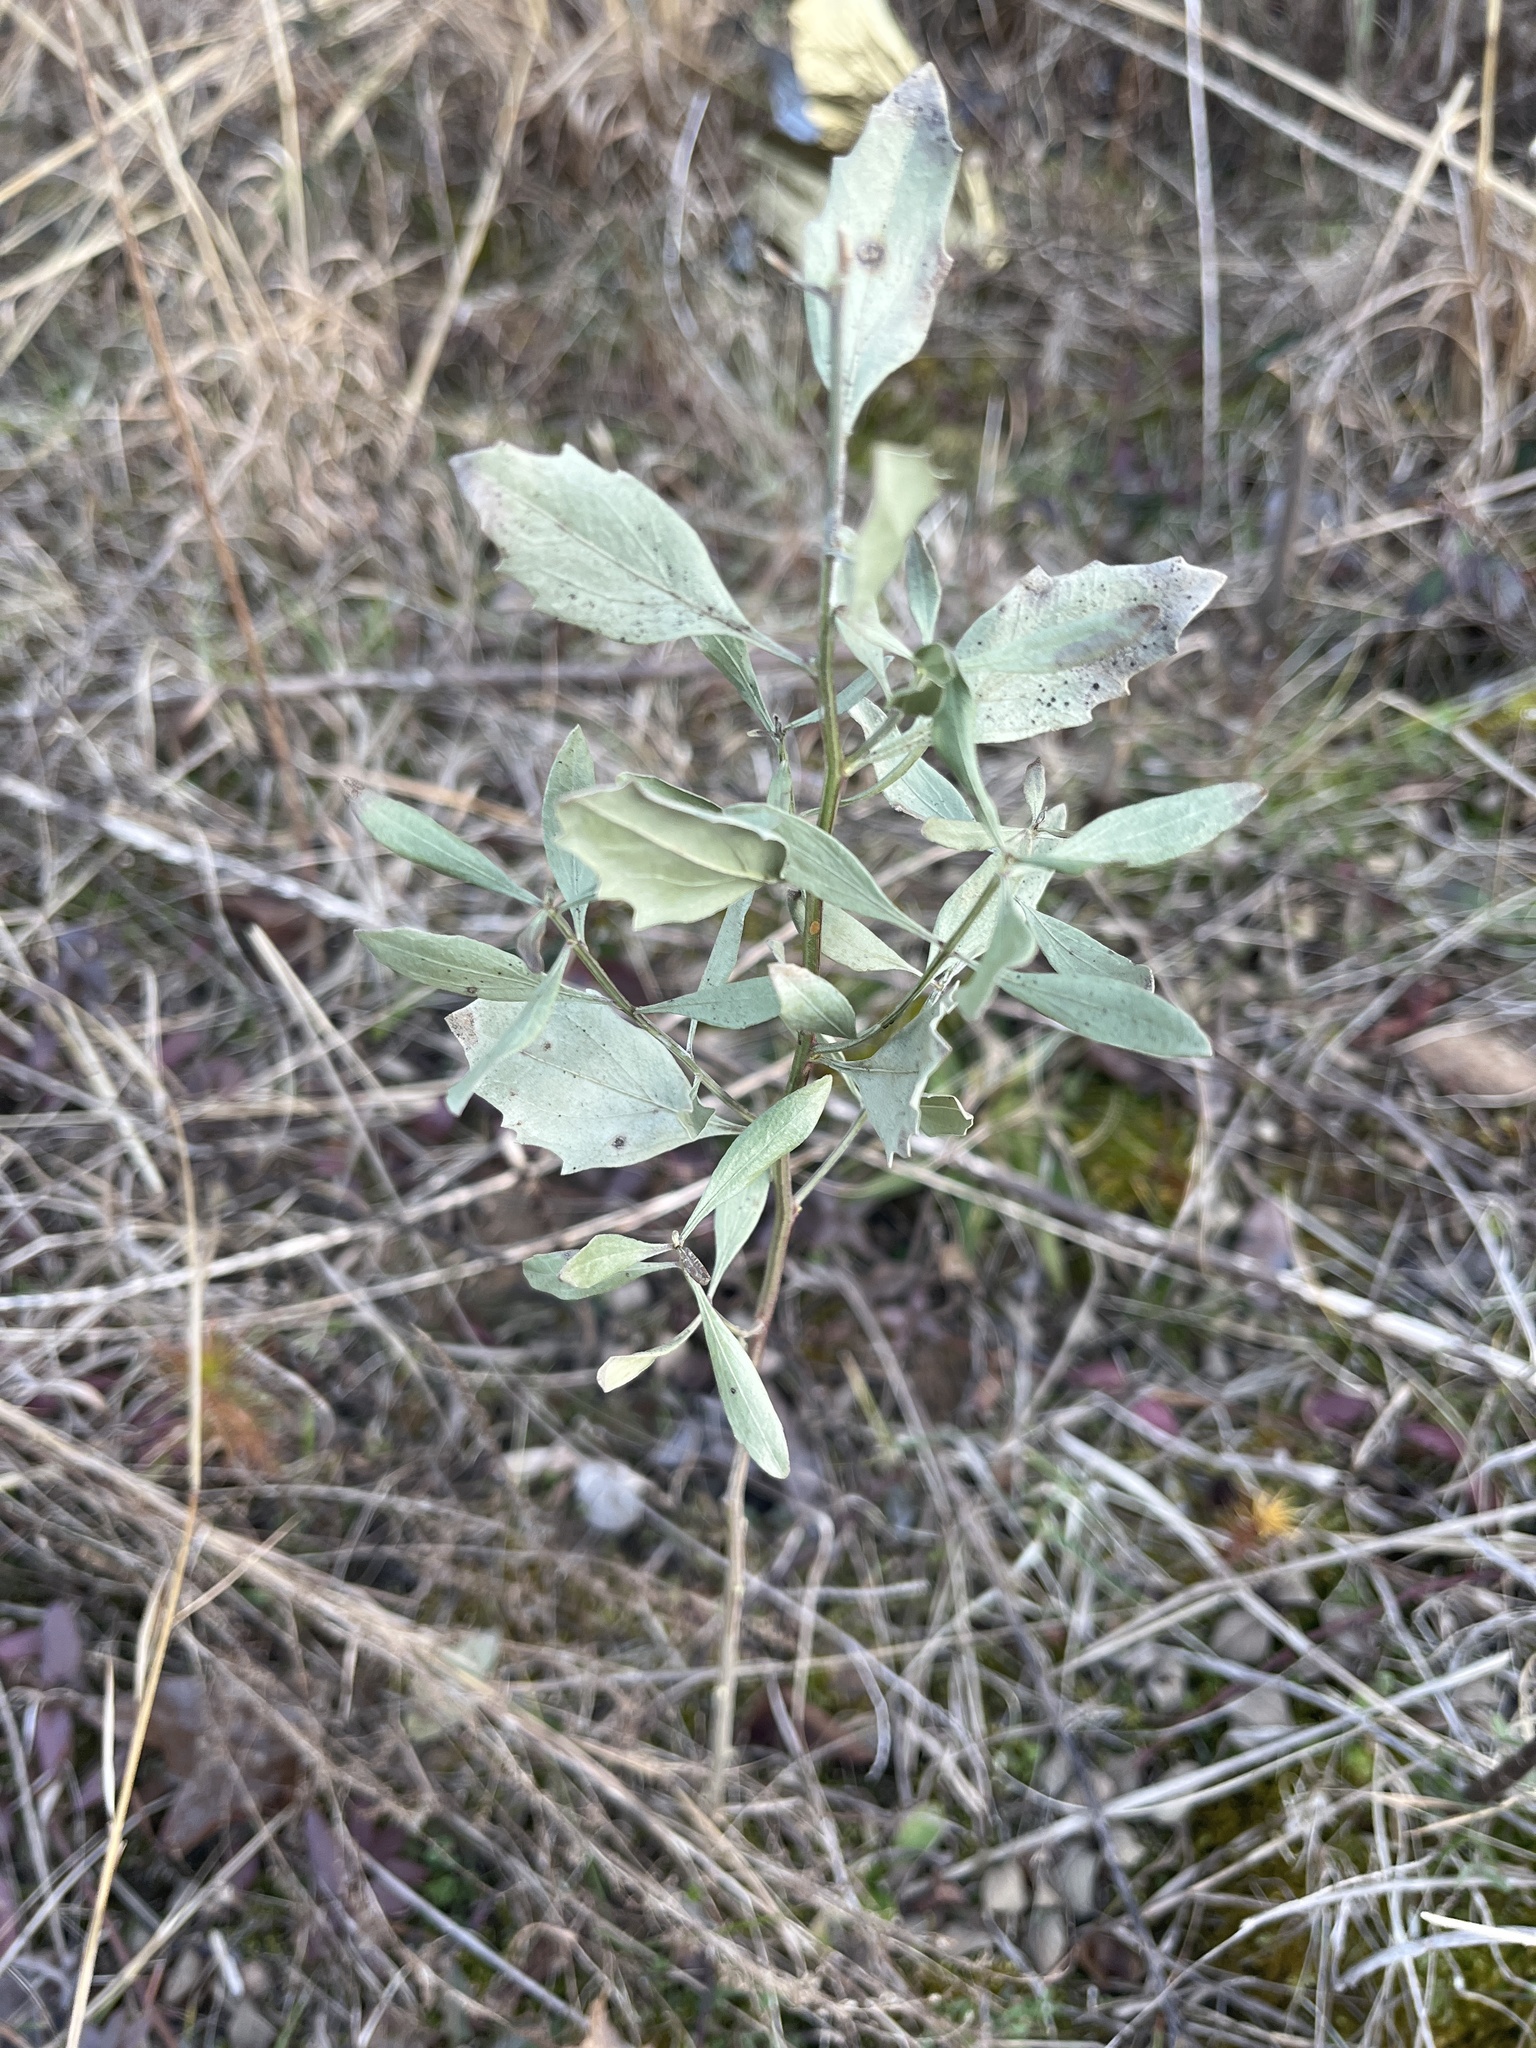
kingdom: Plantae
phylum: Tracheophyta
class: Magnoliopsida
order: Asterales
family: Asteraceae
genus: Baccharis
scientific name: Baccharis halimifolia
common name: Eastern baccharis
